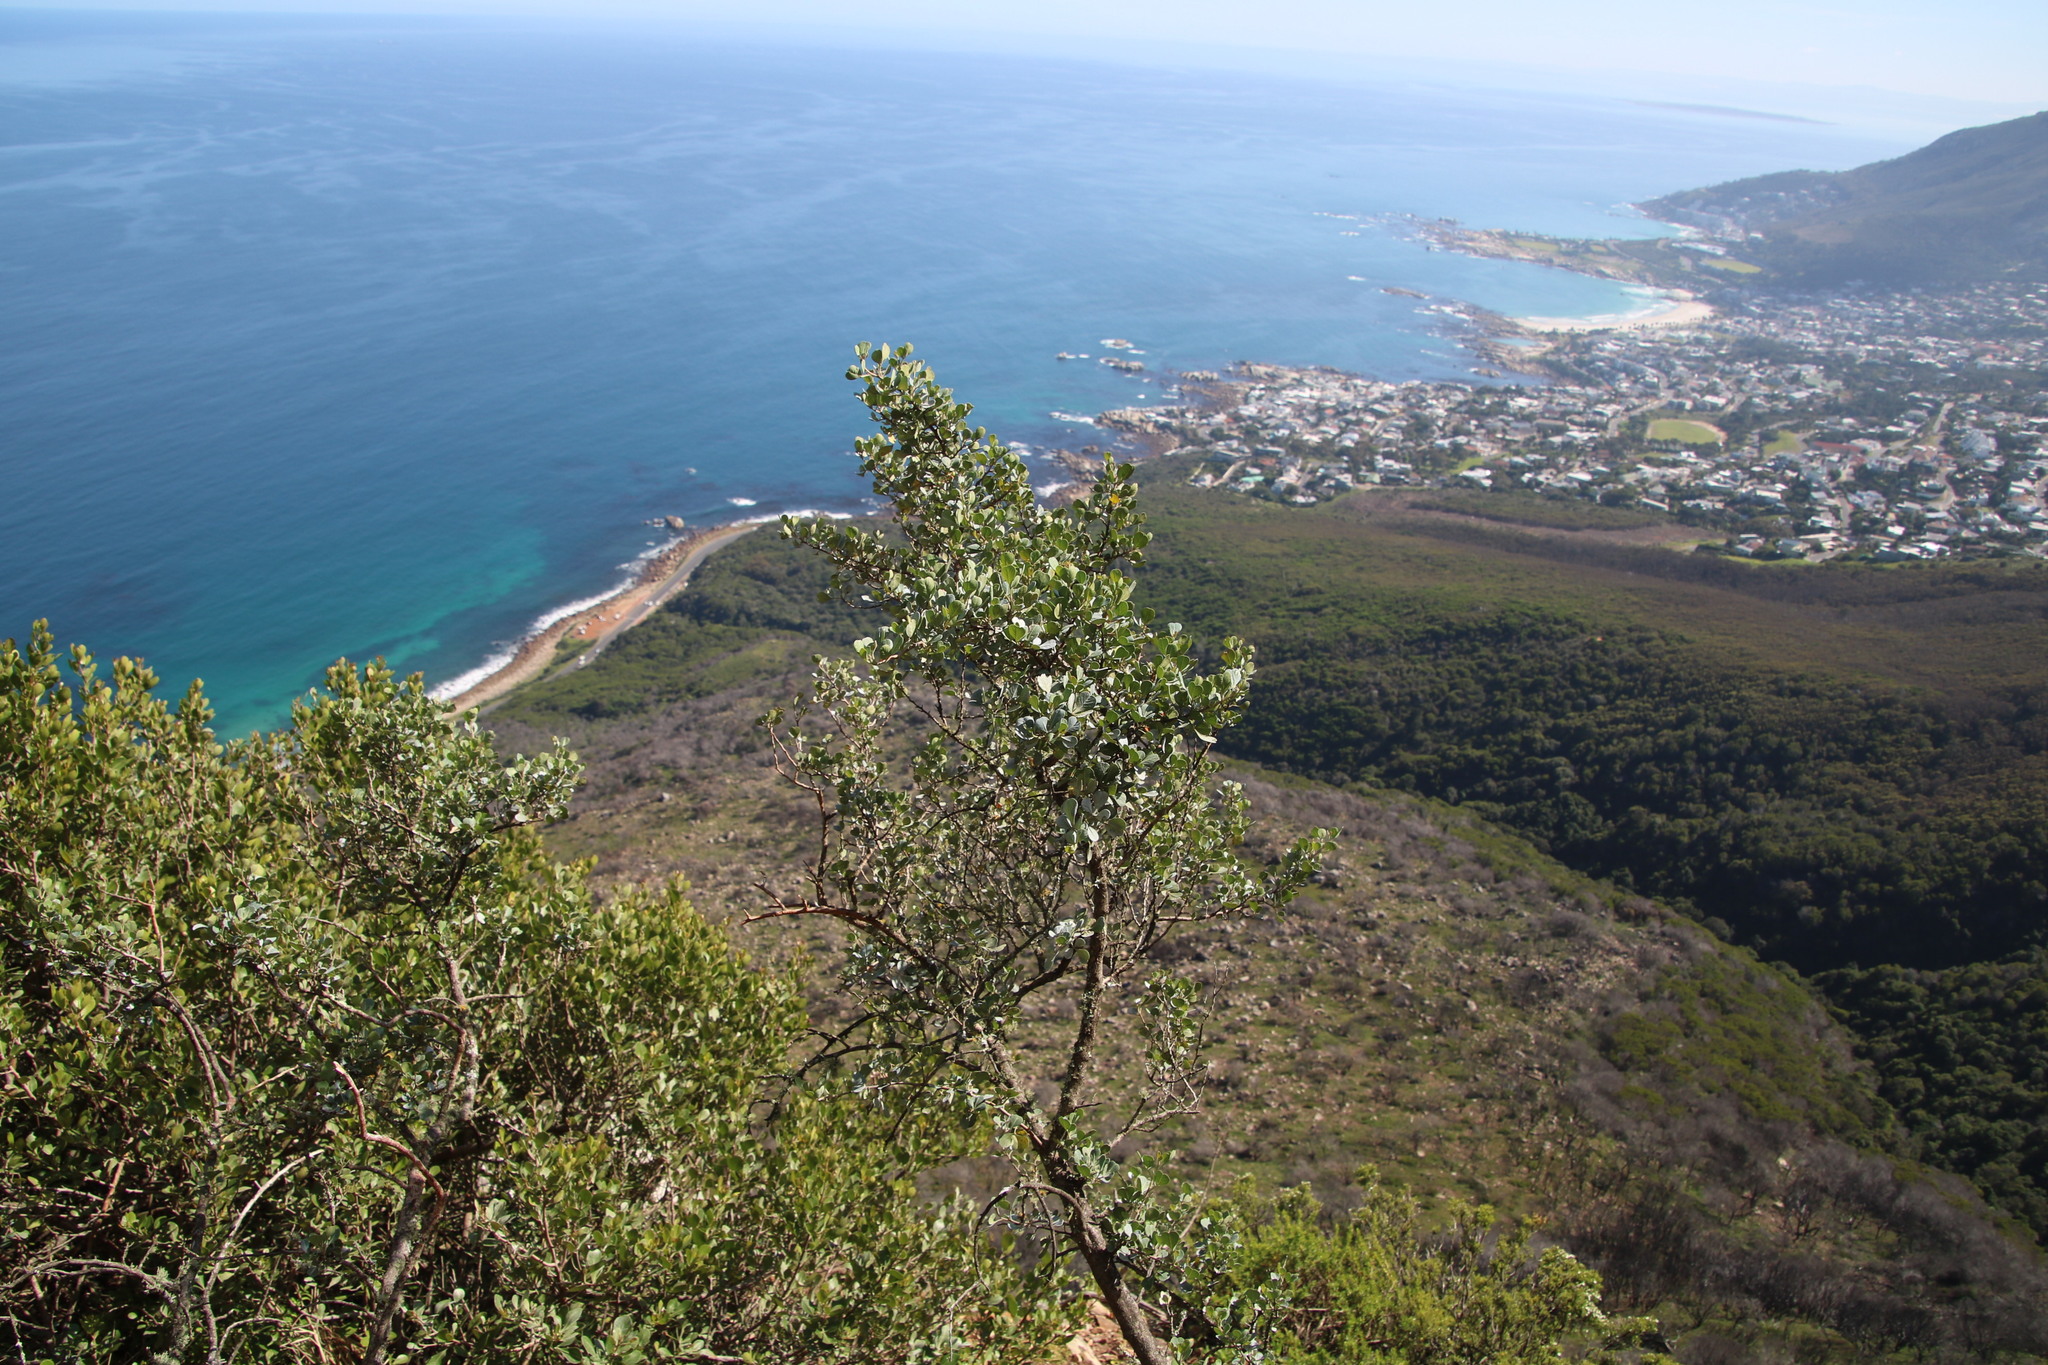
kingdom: Plantae
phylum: Tracheophyta
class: Magnoliopsida
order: Sapindales
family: Anacardiaceae
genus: Searsia
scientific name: Searsia glauca
